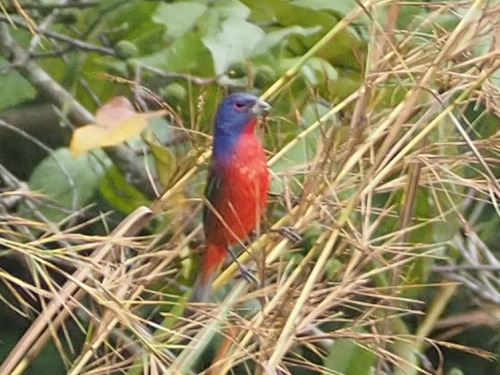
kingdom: Animalia
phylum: Chordata
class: Aves
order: Passeriformes
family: Cardinalidae
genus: Passerina
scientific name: Passerina ciris
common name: Painted bunting
